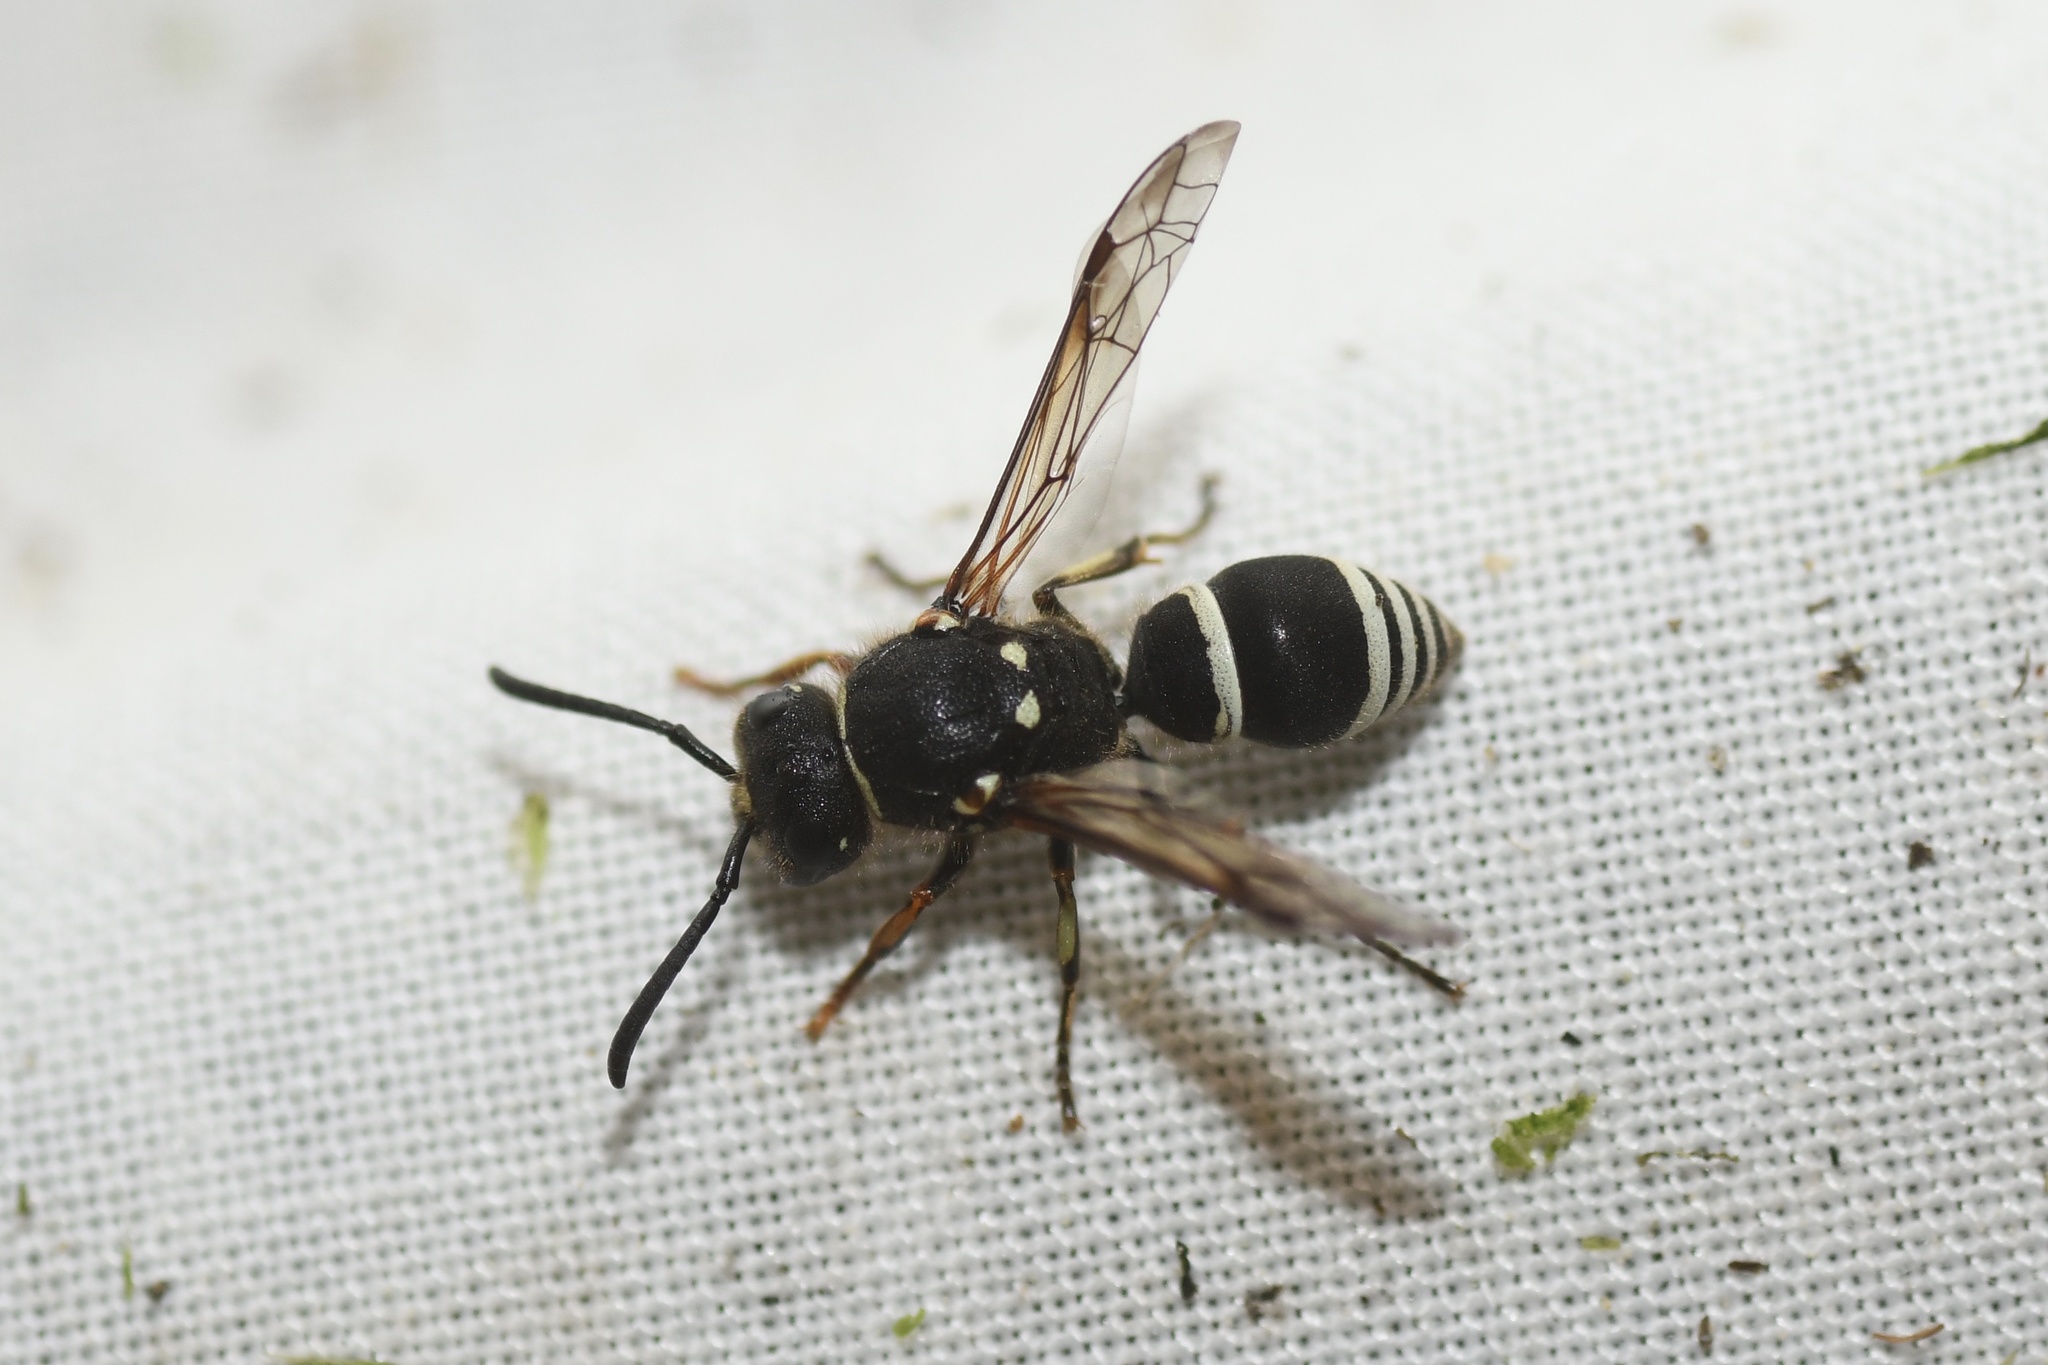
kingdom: Animalia
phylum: Arthropoda
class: Insecta
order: Hymenoptera
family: Vespidae
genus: Ancistrocerus
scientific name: Ancistrocerus albophaleratus
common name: White-banded potter wasp
